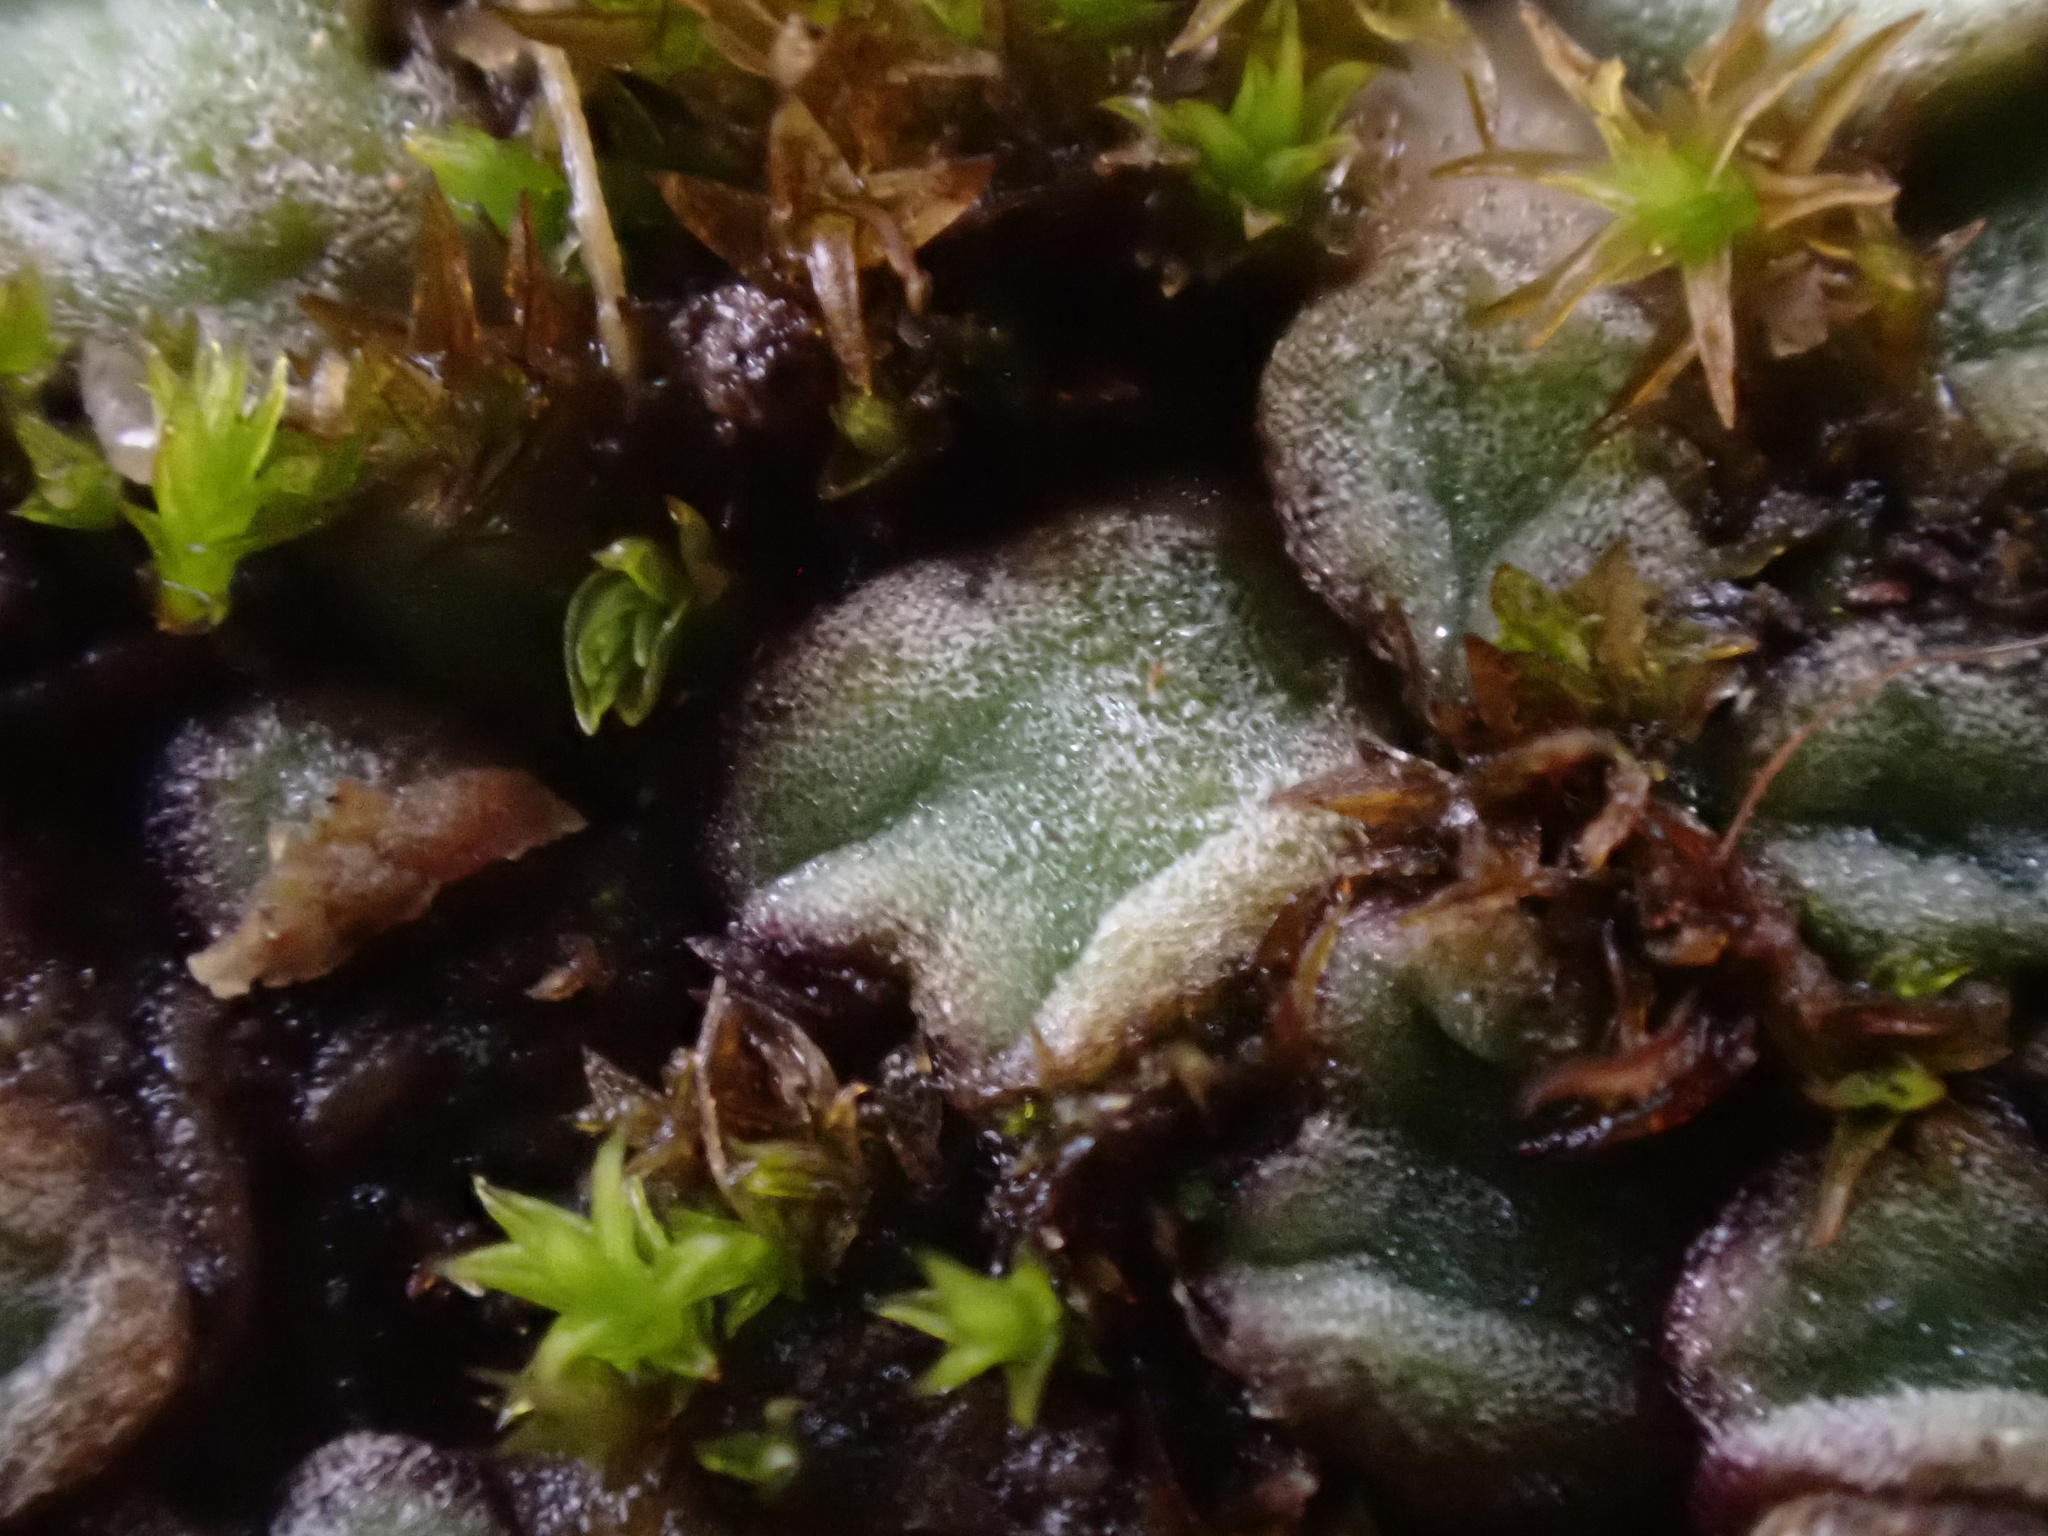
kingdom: Plantae
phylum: Marchantiophyta
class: Marchantiopsida
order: Marchantiales
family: Ricciaceae
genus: Riccia
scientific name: Riccia bifurca
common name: Lizard crystalwort
